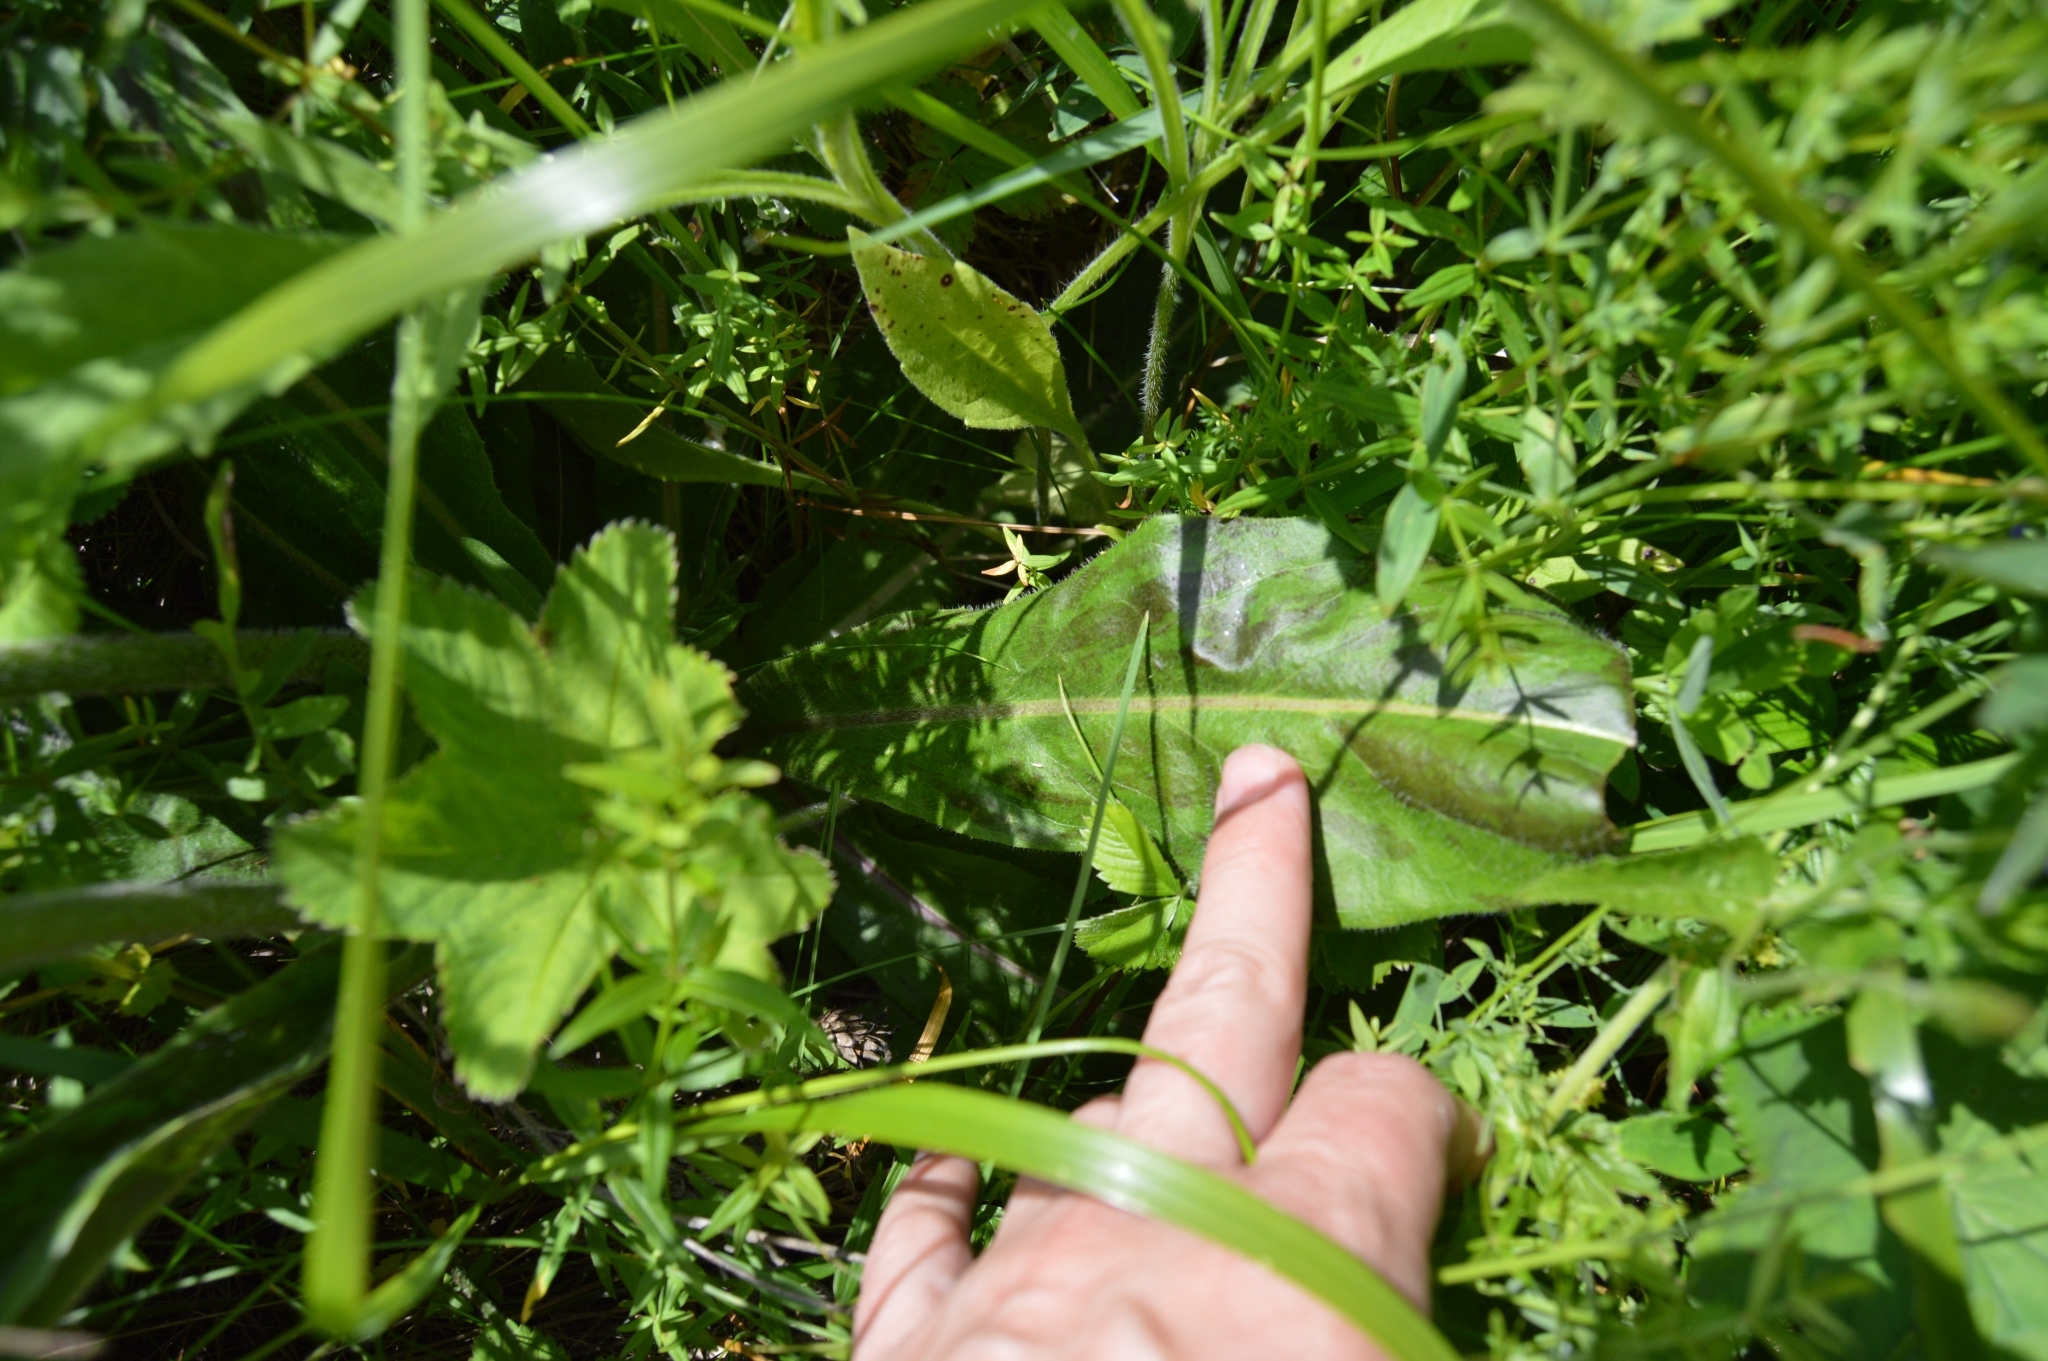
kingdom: Plantae
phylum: Tracheophyta
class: Magnoliopsida
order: Asterales
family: Asteraceae
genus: Trommsdorffia
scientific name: Trommsdorffia maculata
